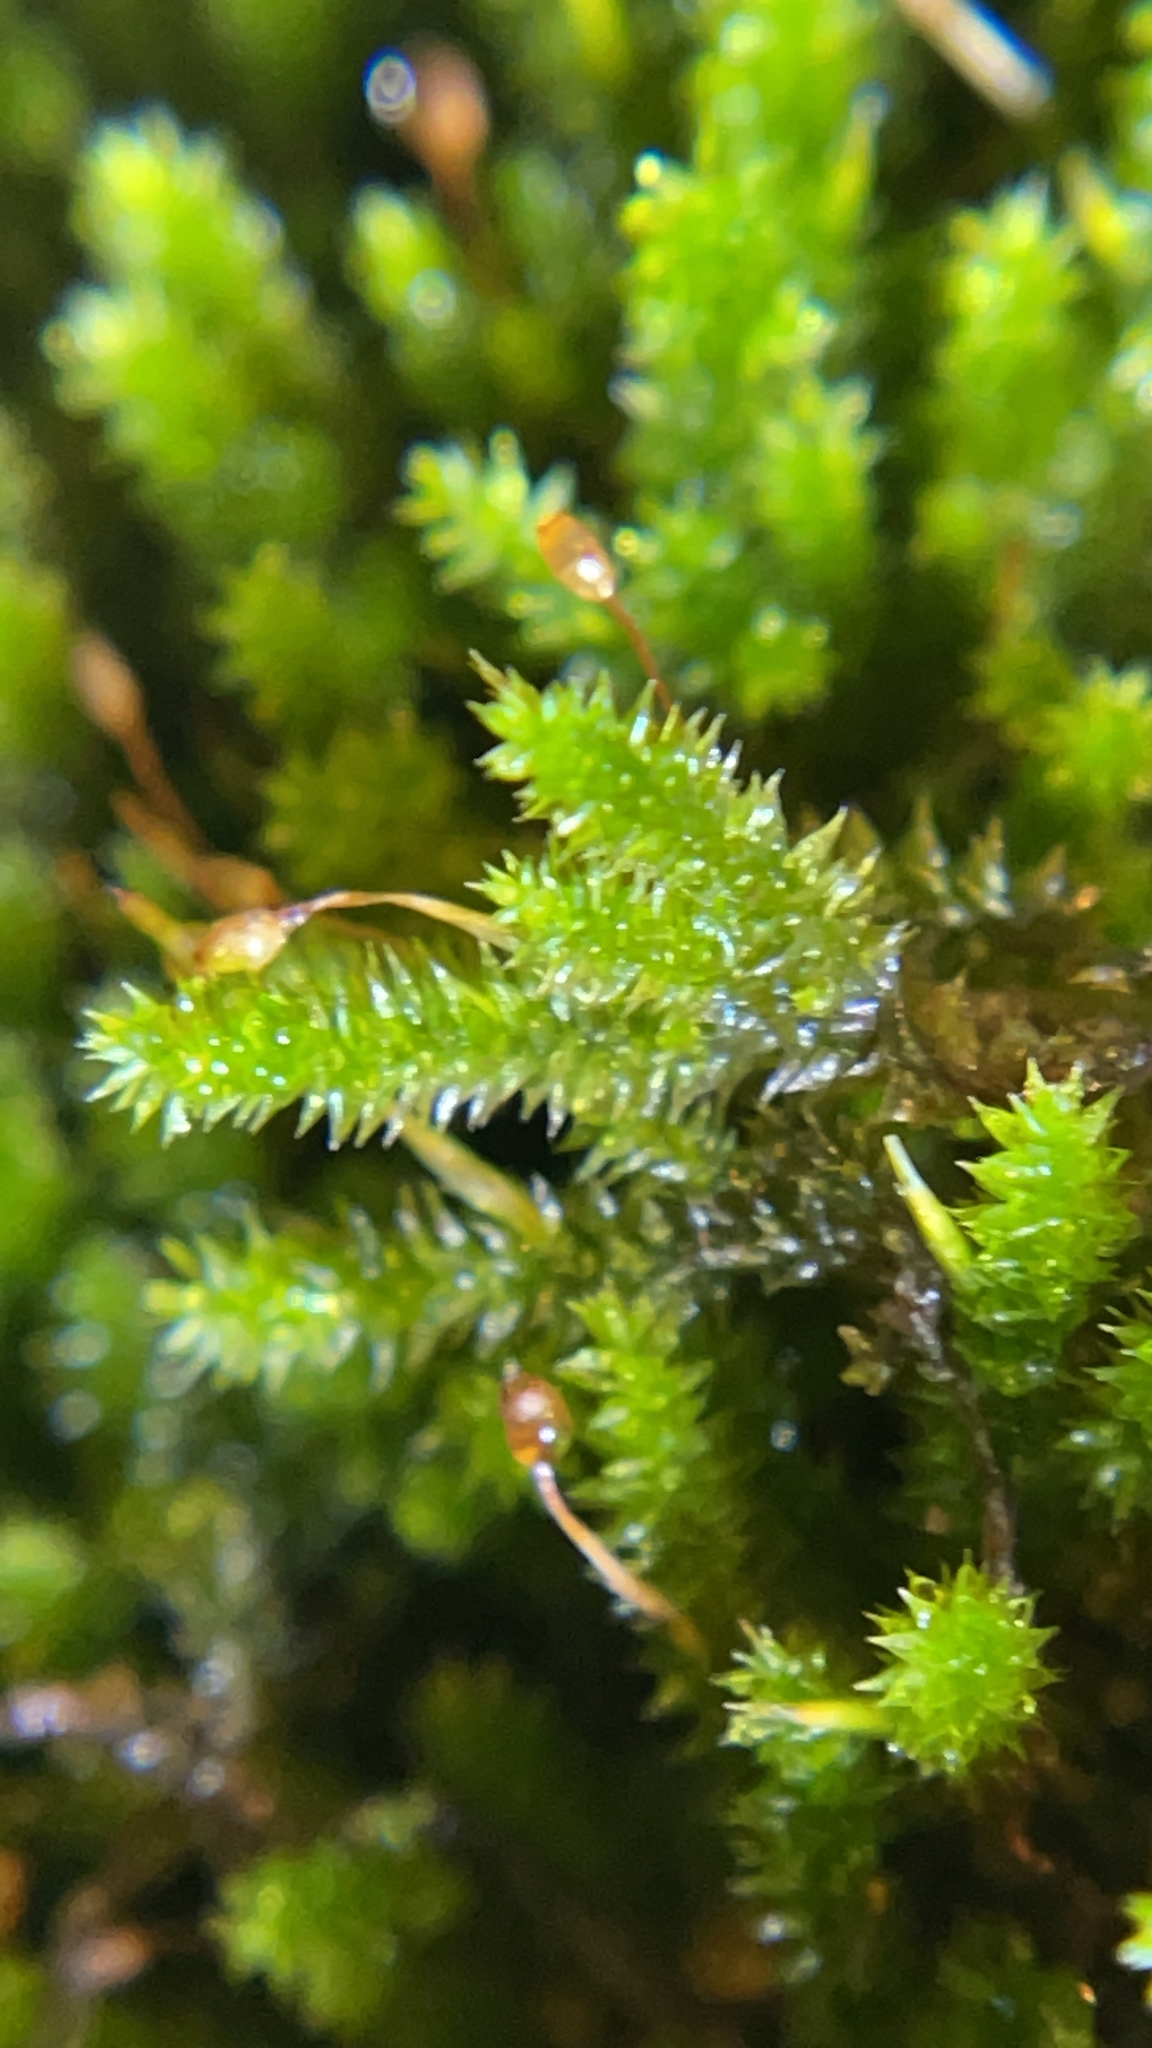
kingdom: Plantae
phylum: Bryophyta
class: Bryopsida
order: Hypnales
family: Leucodontaceae
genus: Leucodon
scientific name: Leucodon sciuroides
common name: Squirrel-tail moss
